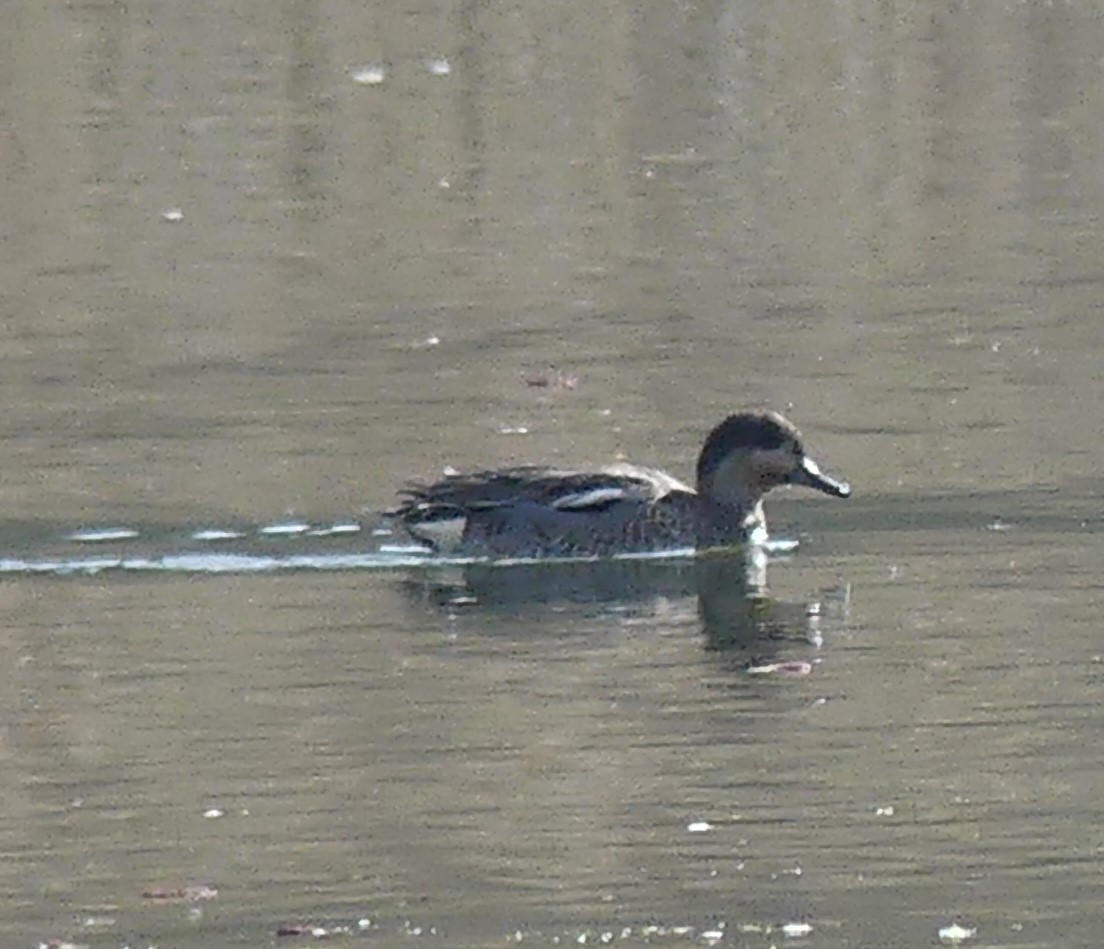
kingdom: Animalia
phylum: Chordata
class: Aves
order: Anseriformes
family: Anatidae
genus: Anas
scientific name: Anas crecca
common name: Eurasian teal
